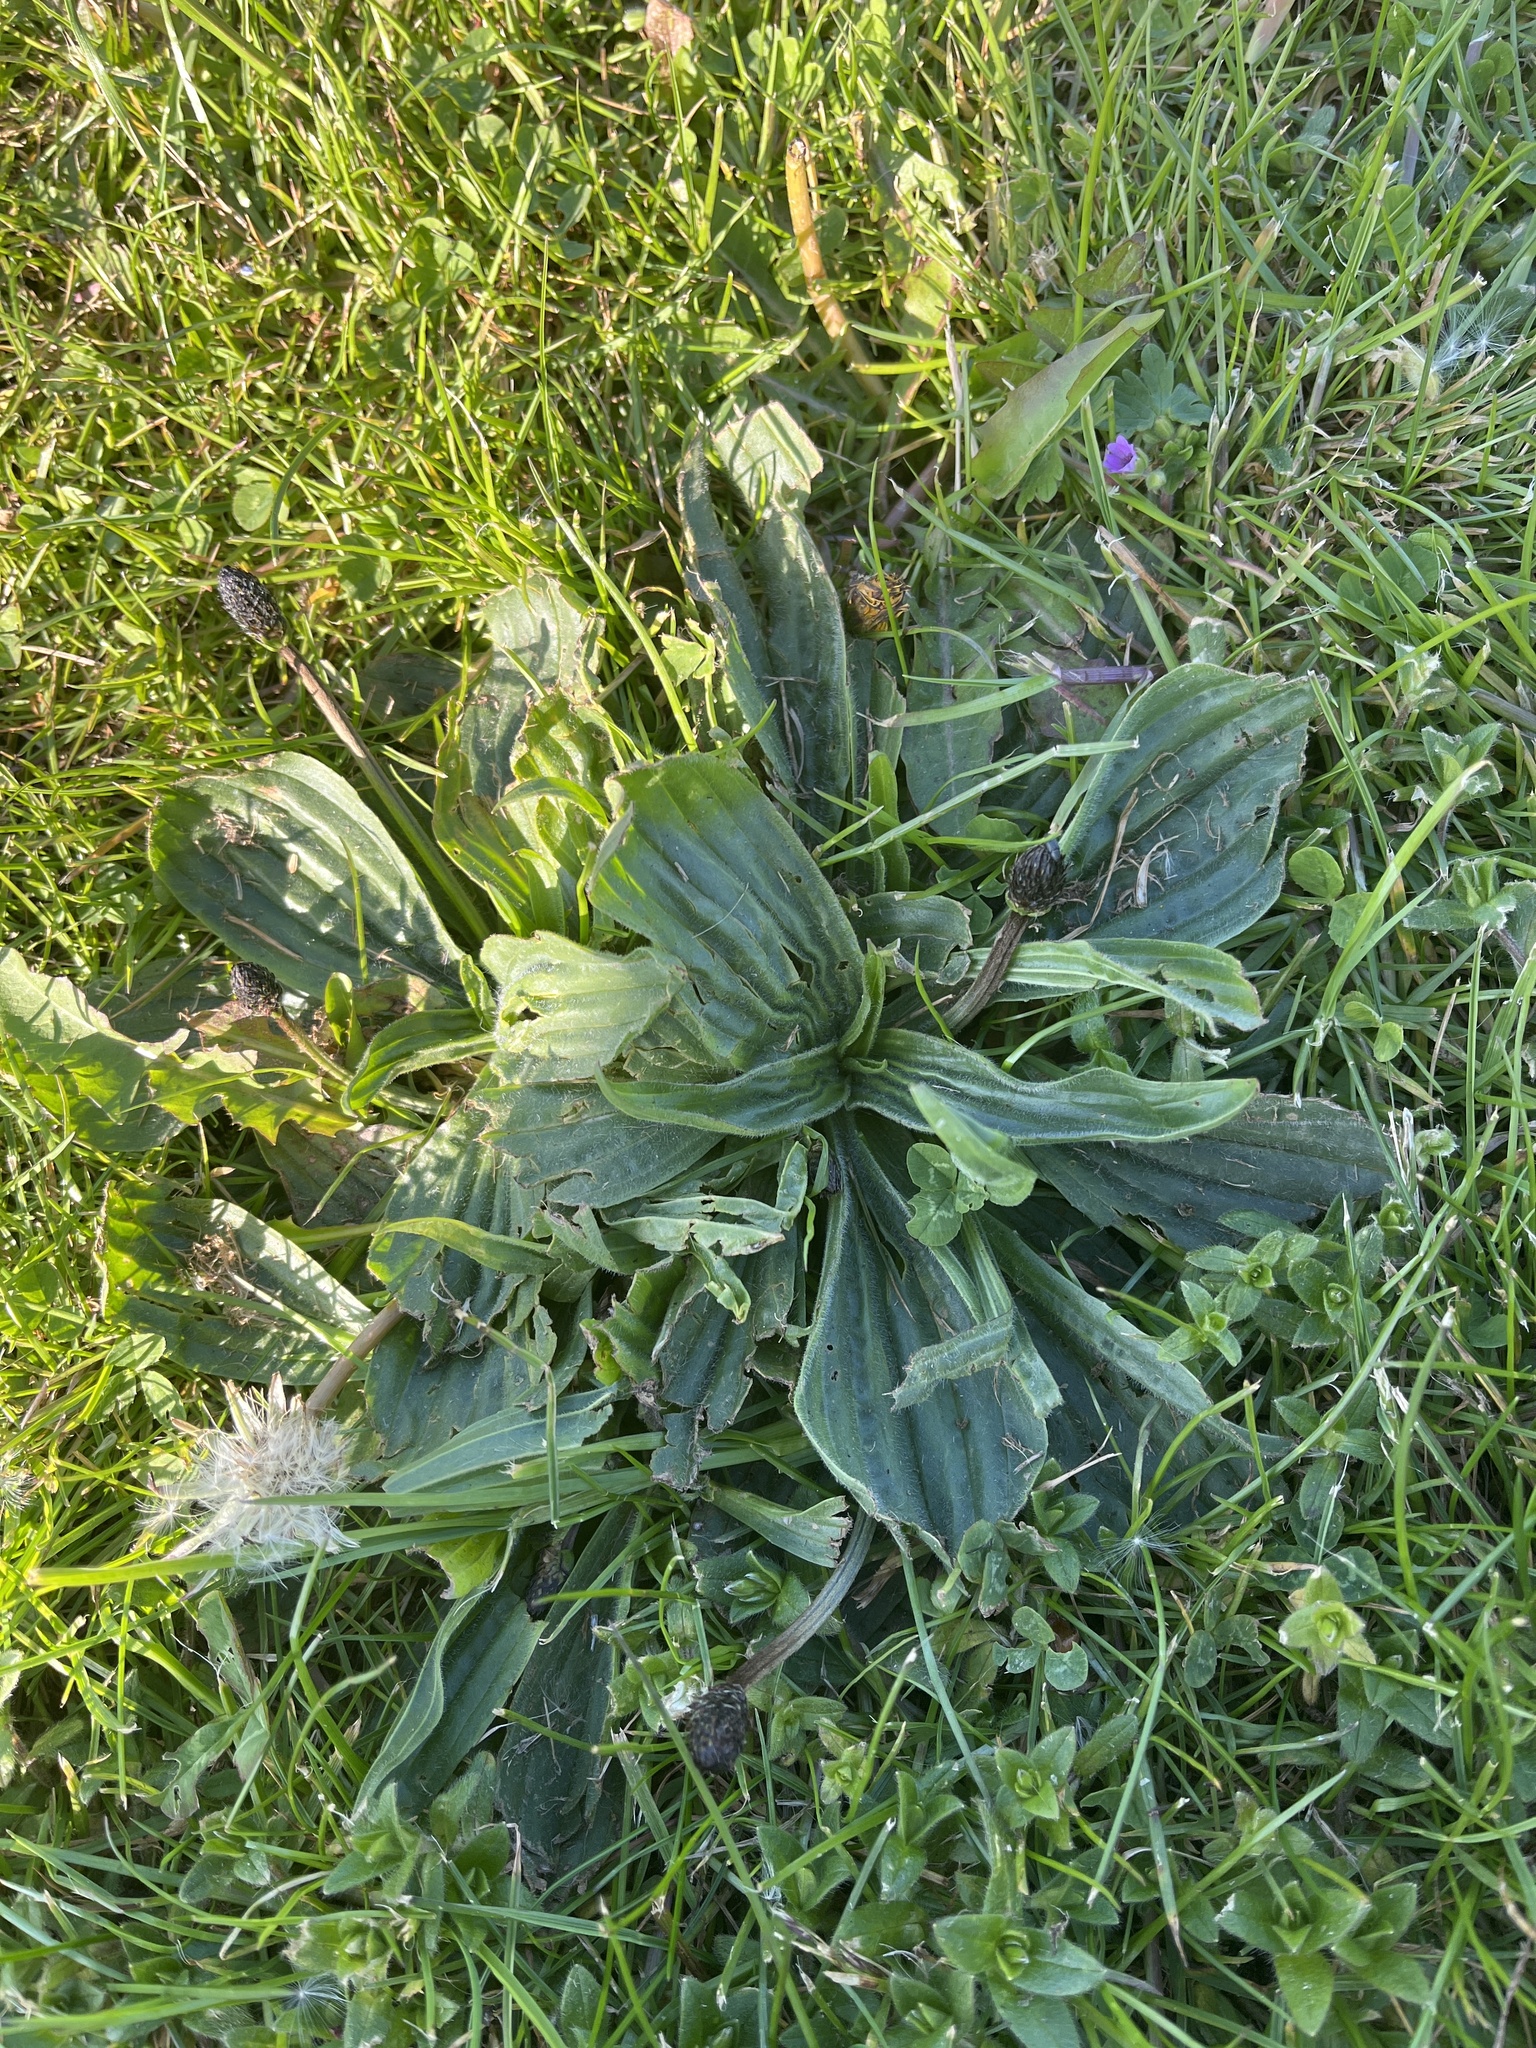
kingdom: Plantae
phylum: Tracheophyta
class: Magnoliopsida
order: Lamiales
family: Plantaginaceae
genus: Plantago
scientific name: Plantago lanceolata
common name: Ribwort plantain
